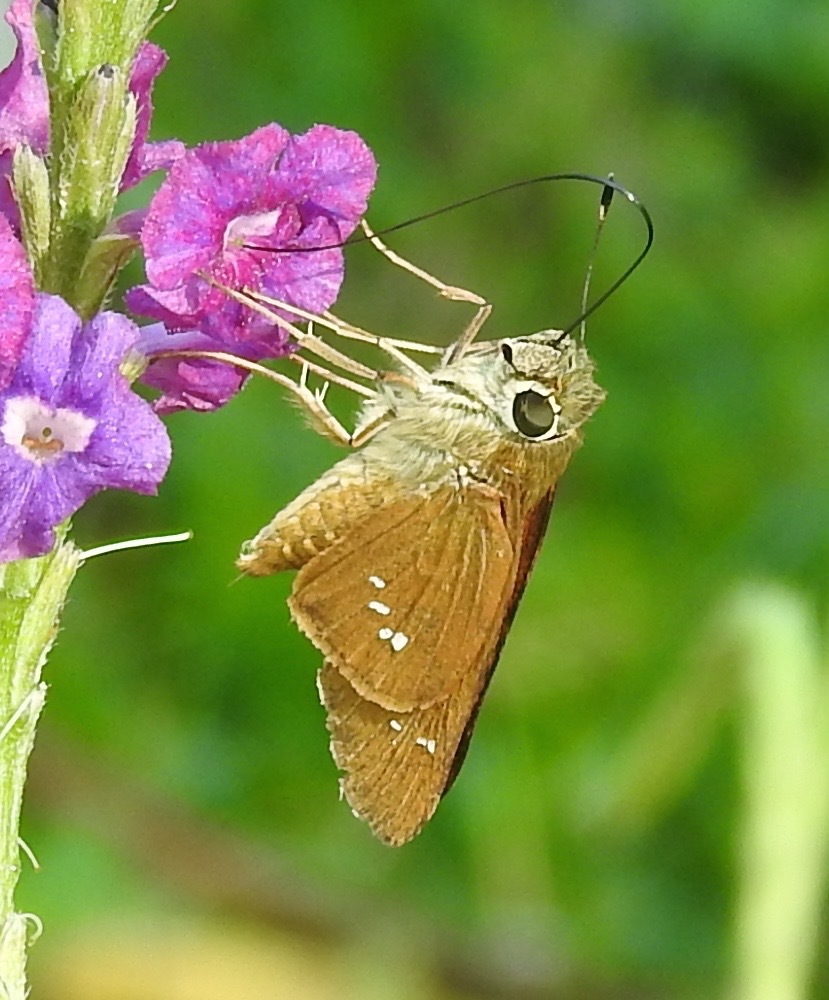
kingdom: Animalia
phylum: Arthropoda
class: Insecta
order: Lepidoptera
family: Hesperiidae
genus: Calpodes
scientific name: Calpodes ethlius
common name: Brazilian skipper
